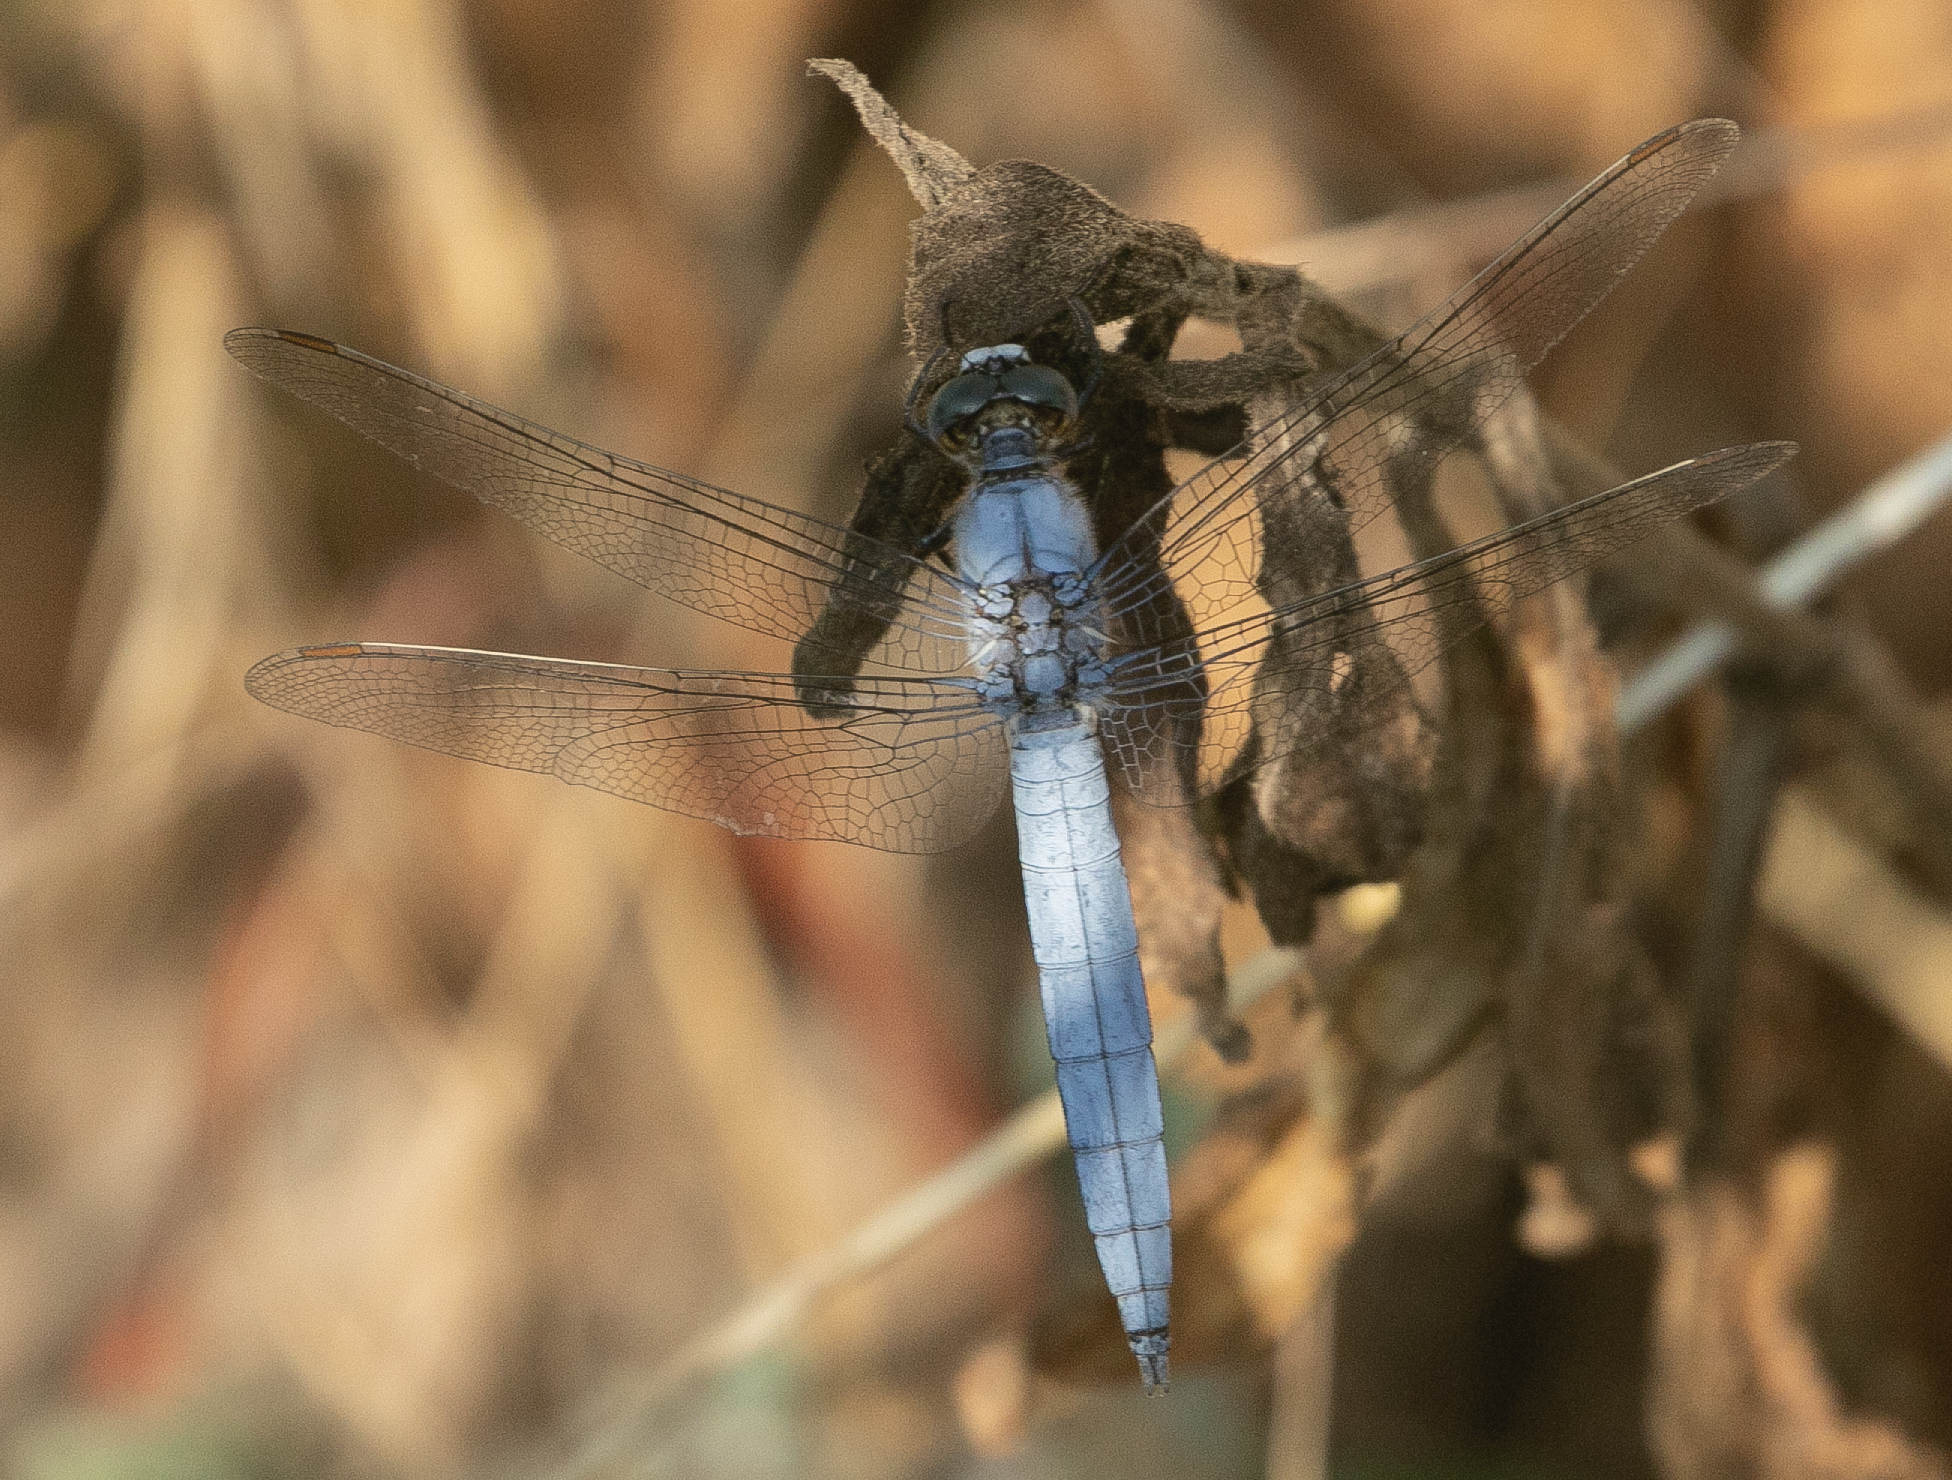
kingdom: Animalia
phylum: Arthropoda
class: Insecta
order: Odonata
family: Libellulidae
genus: Orthetrum
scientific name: Orthetrum brunneum
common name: Southern skimmer
